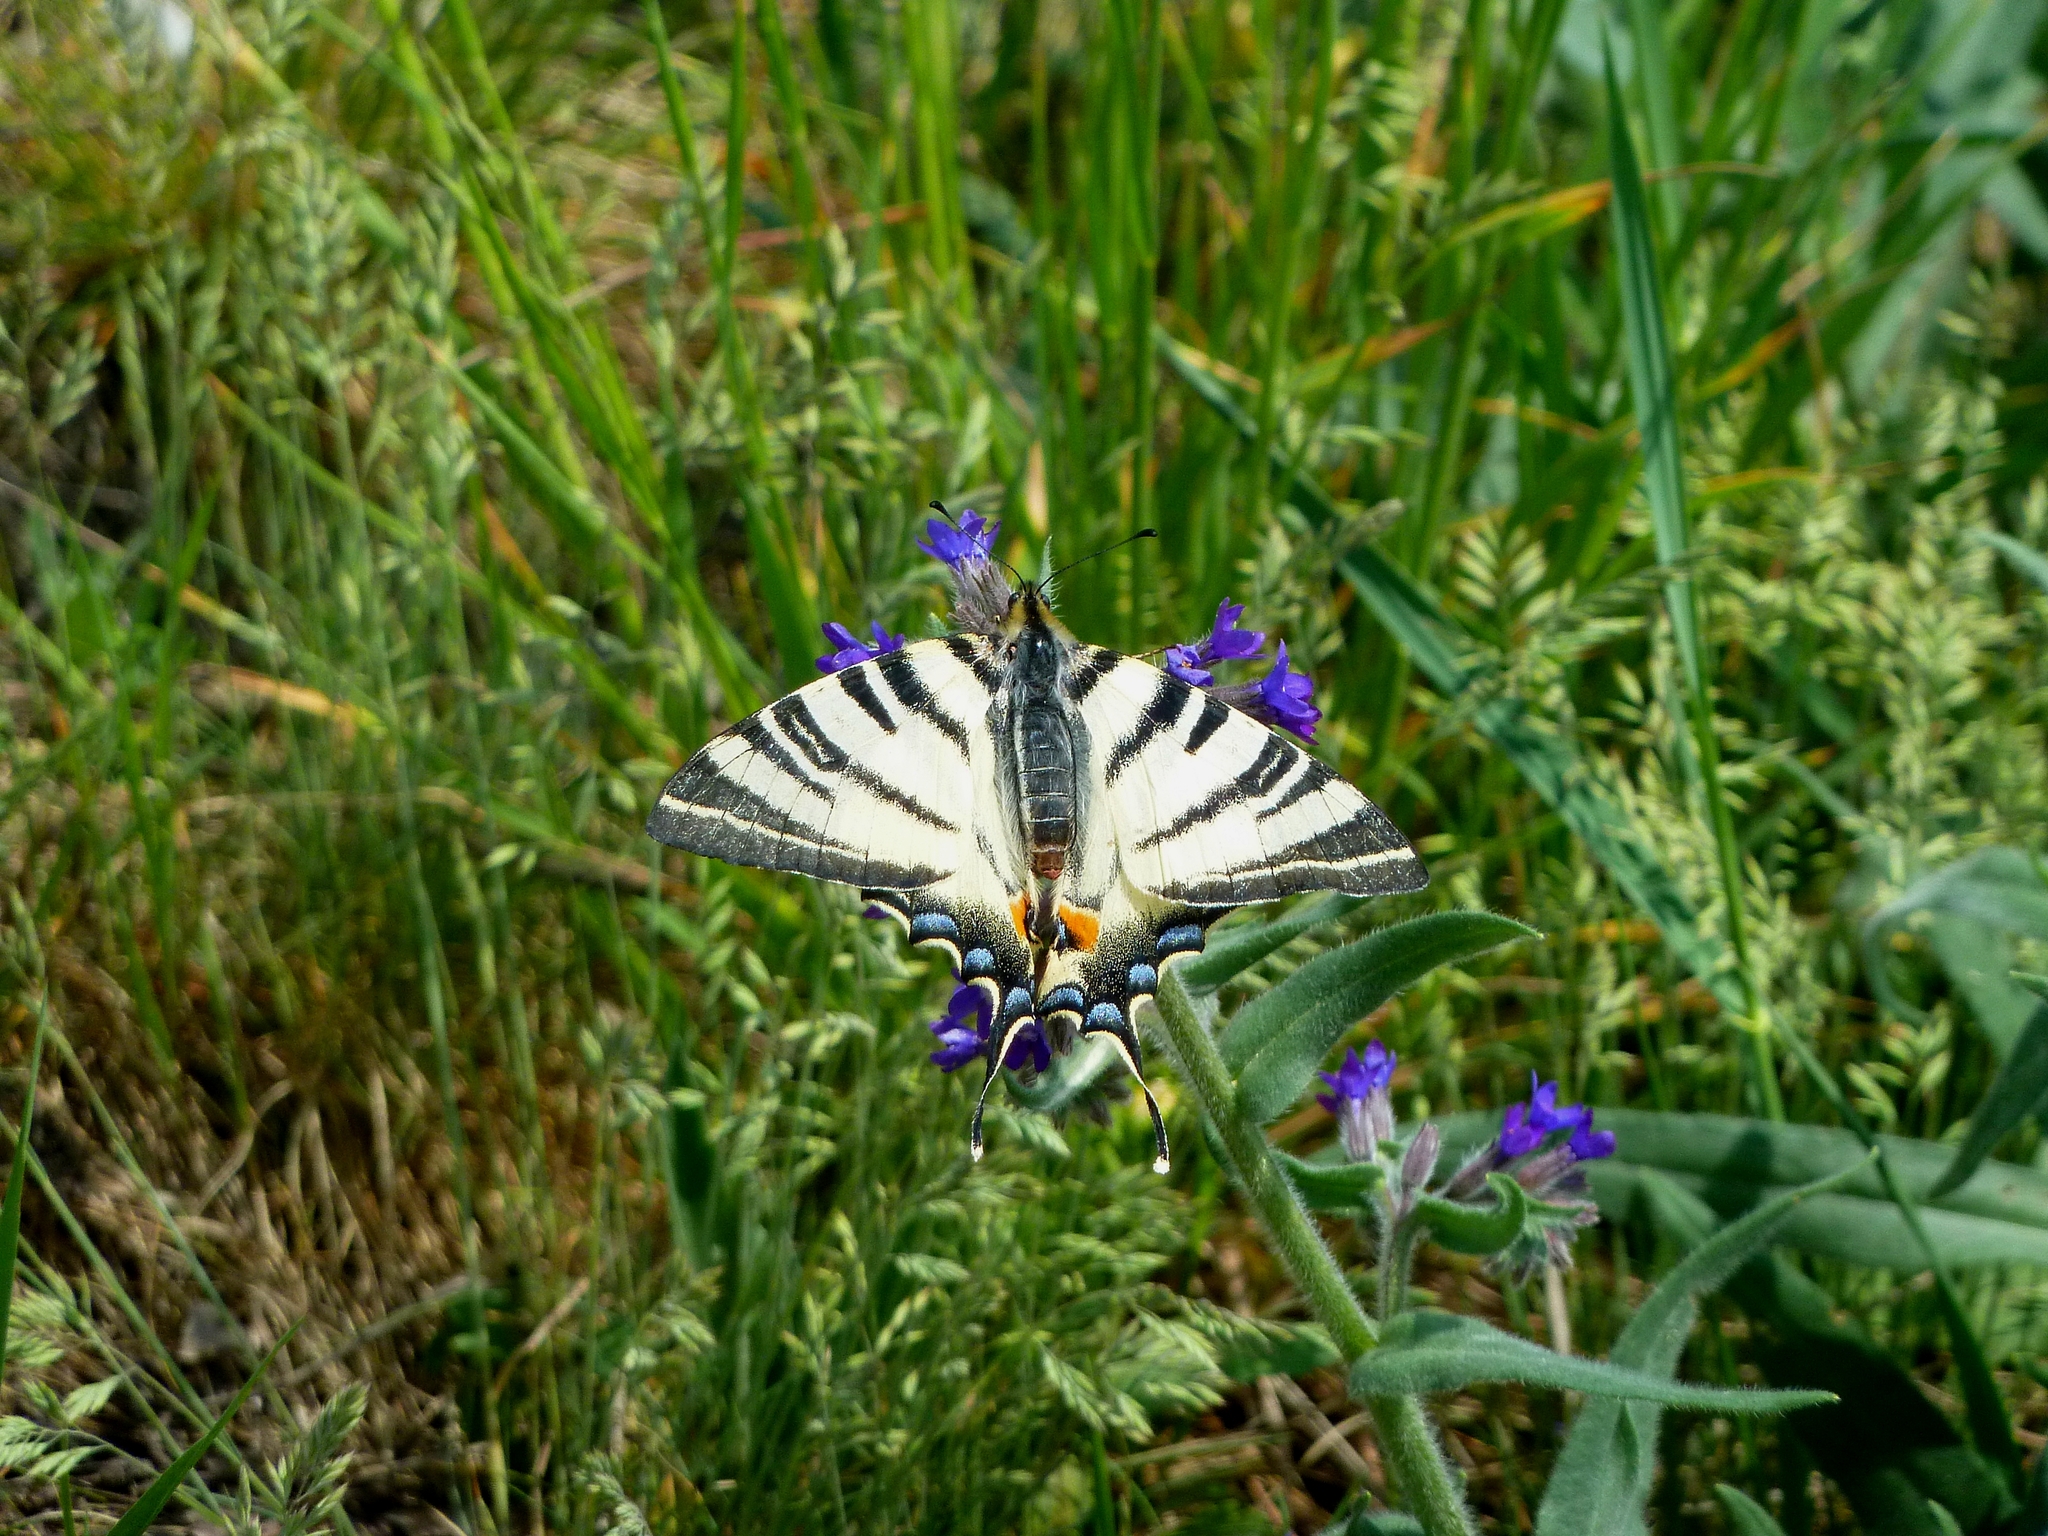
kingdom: Animalia
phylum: Arthropoda
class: Insecta
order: Lepidoptera
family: Papilionidae
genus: Iphiclides
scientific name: Iphiclides podalirius
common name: Scarce swallowtail
